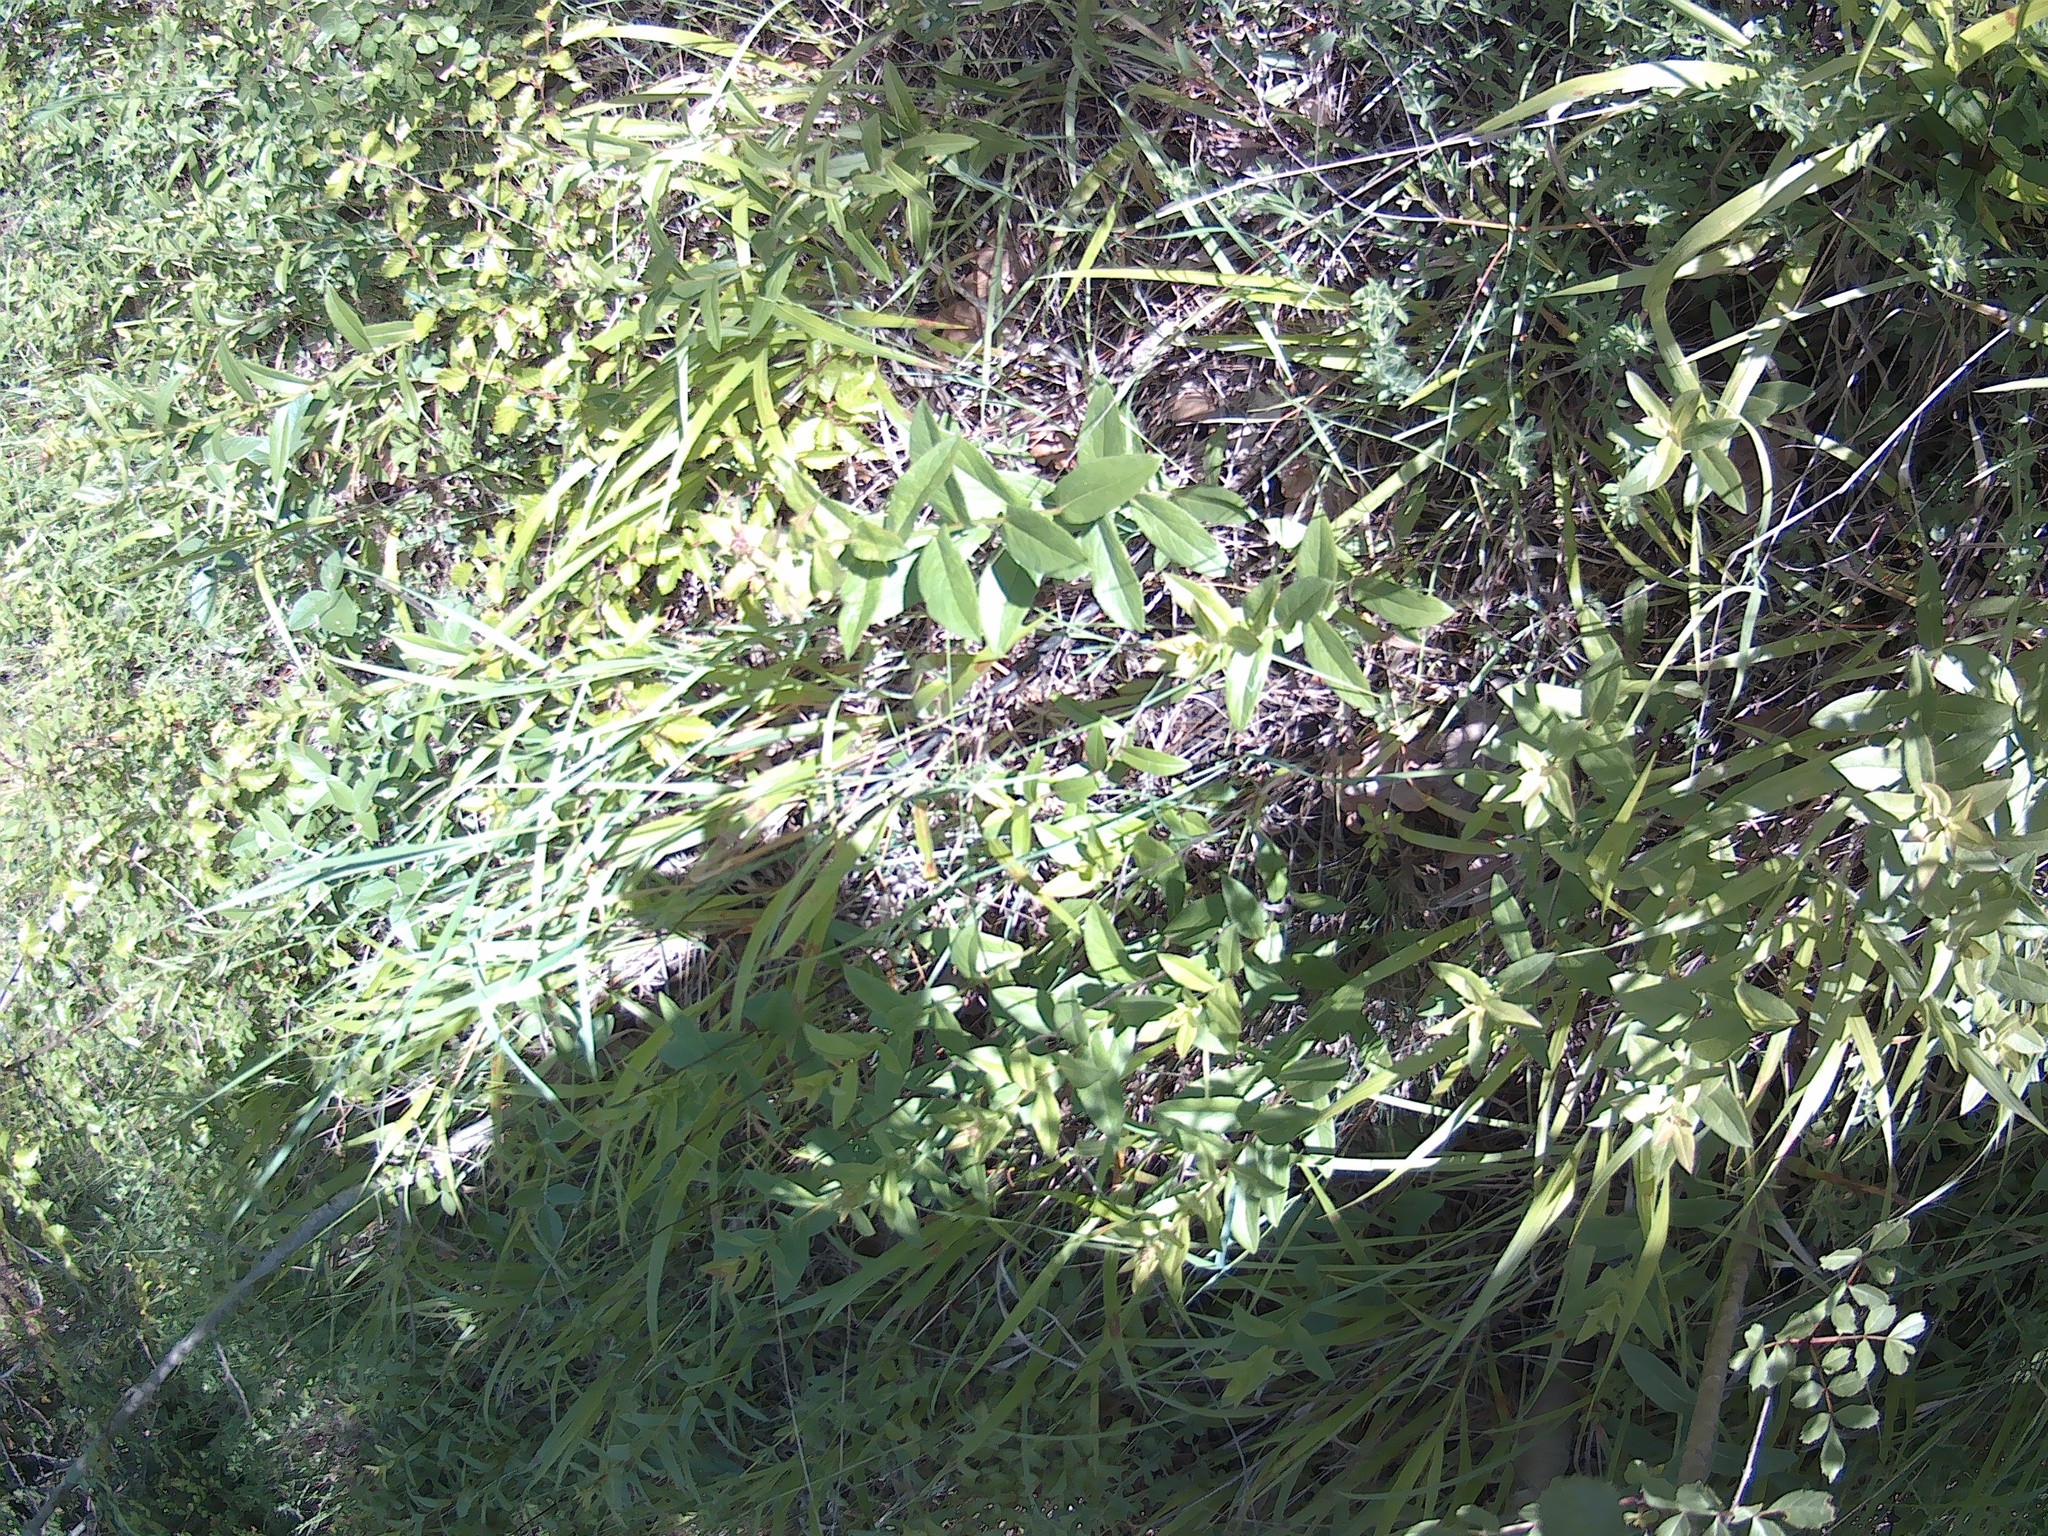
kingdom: Plantae
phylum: Tracheophyta
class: Magnoliopsida
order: Lamiales
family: Lamiaceae
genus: Mentha
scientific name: Mentha longifolia
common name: Horse mint
